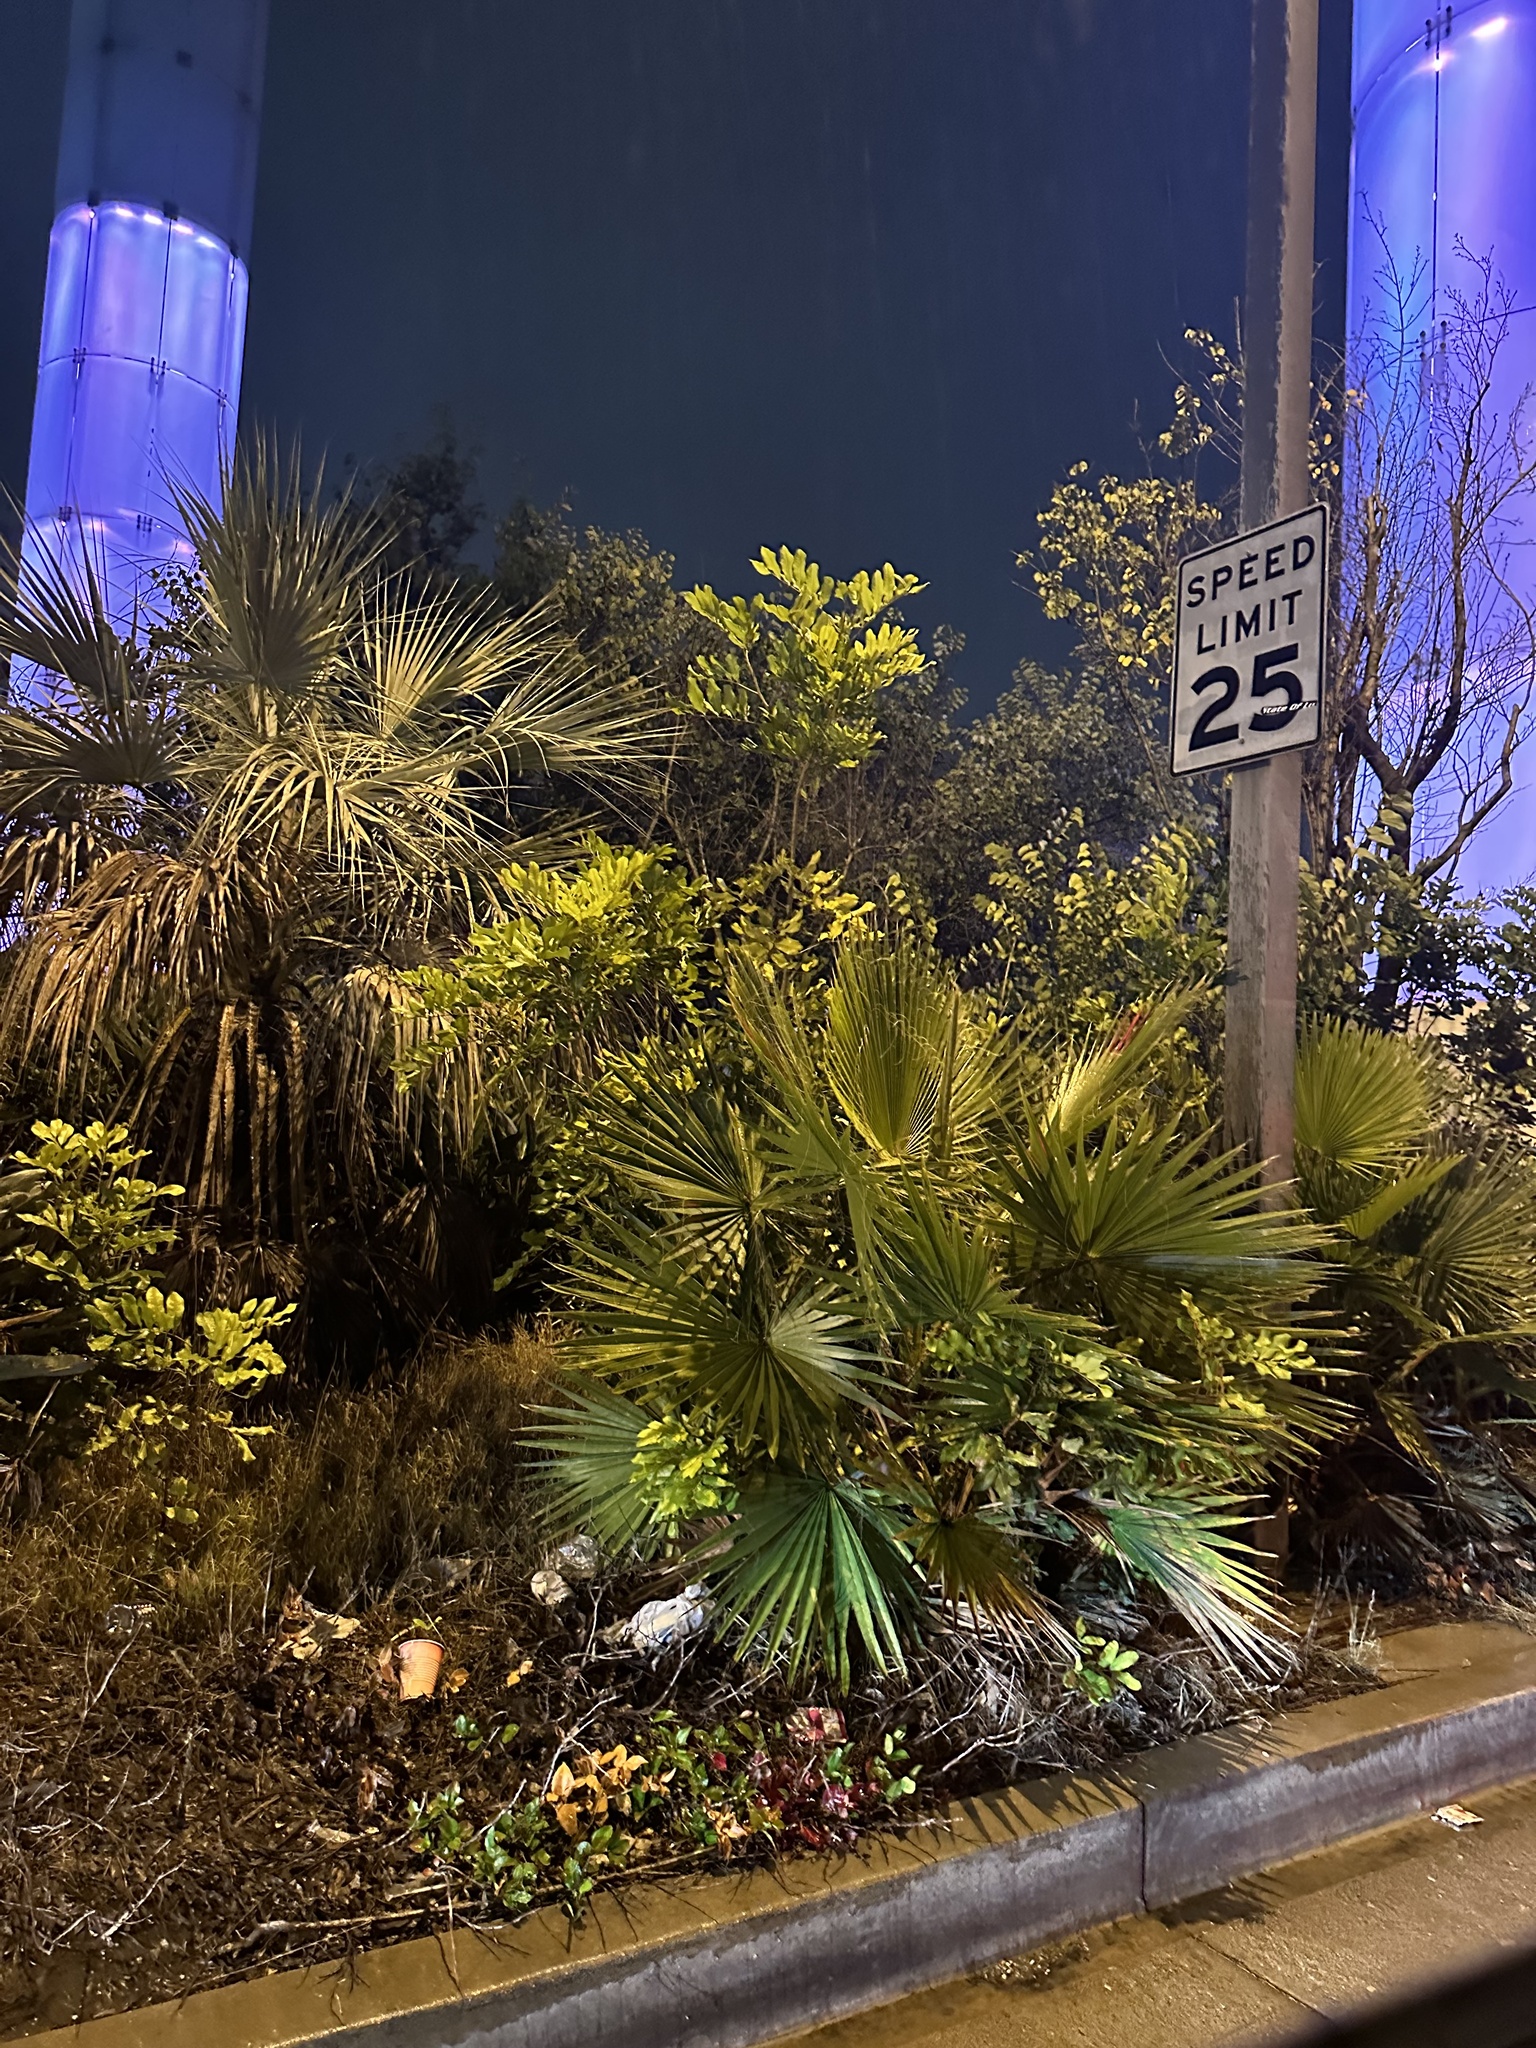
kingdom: Plantae
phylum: Tracheophyta
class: Liliopsida
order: Arecales
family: Arecaceae
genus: Washingtonia
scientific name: Washingtonia robusta
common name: Mexican fan palm
